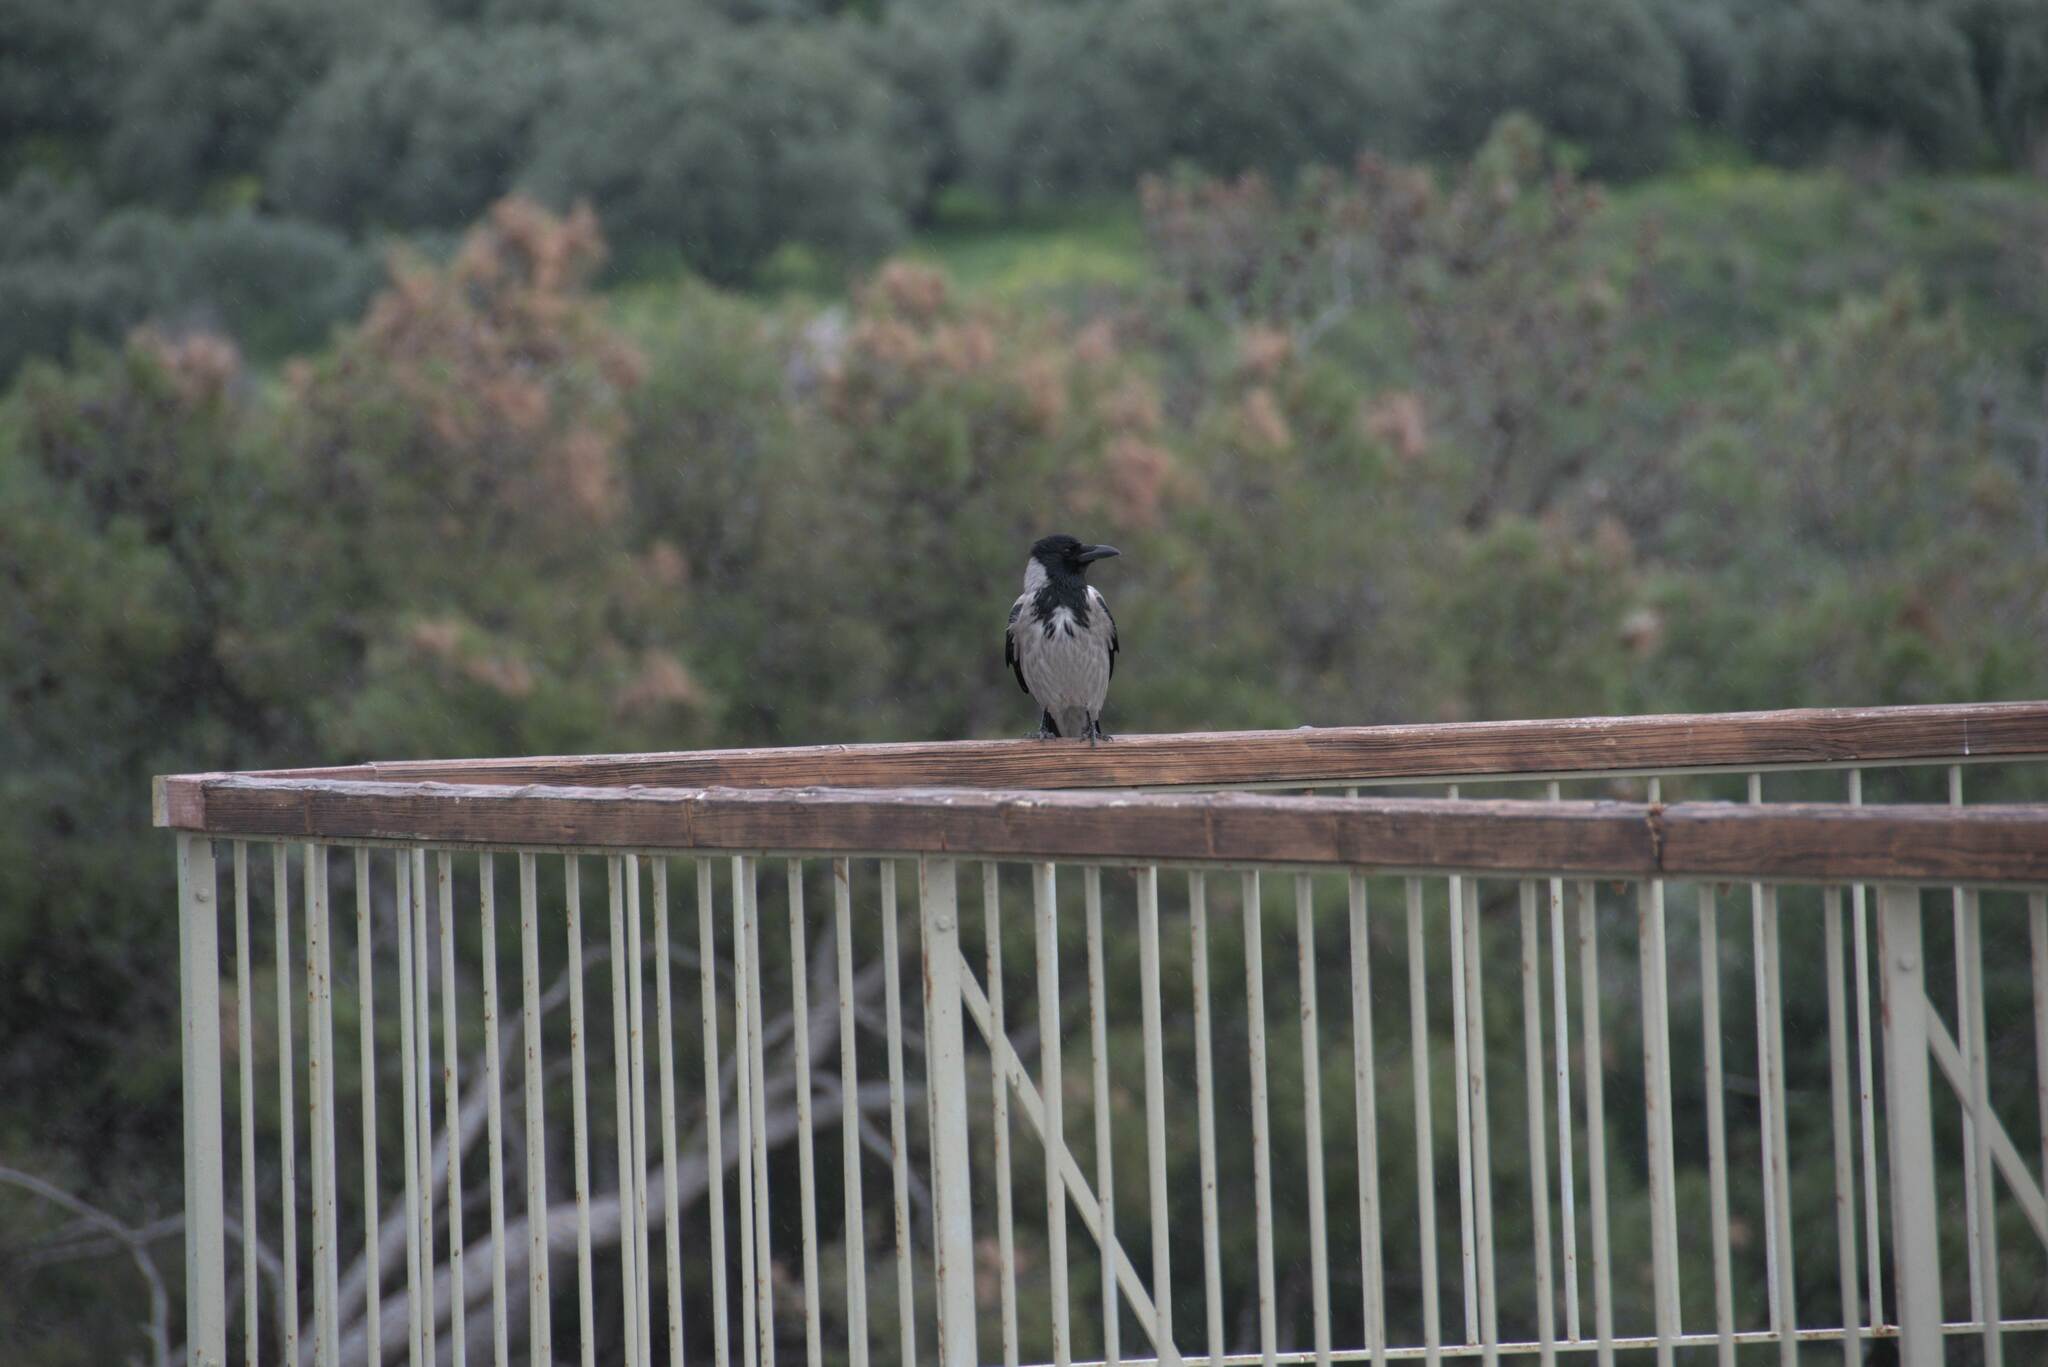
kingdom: Animalia
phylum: Chordata
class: Aves
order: Passeriformes
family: Corvidae
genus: Corvus
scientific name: Corvus cornix
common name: Hooded crow
